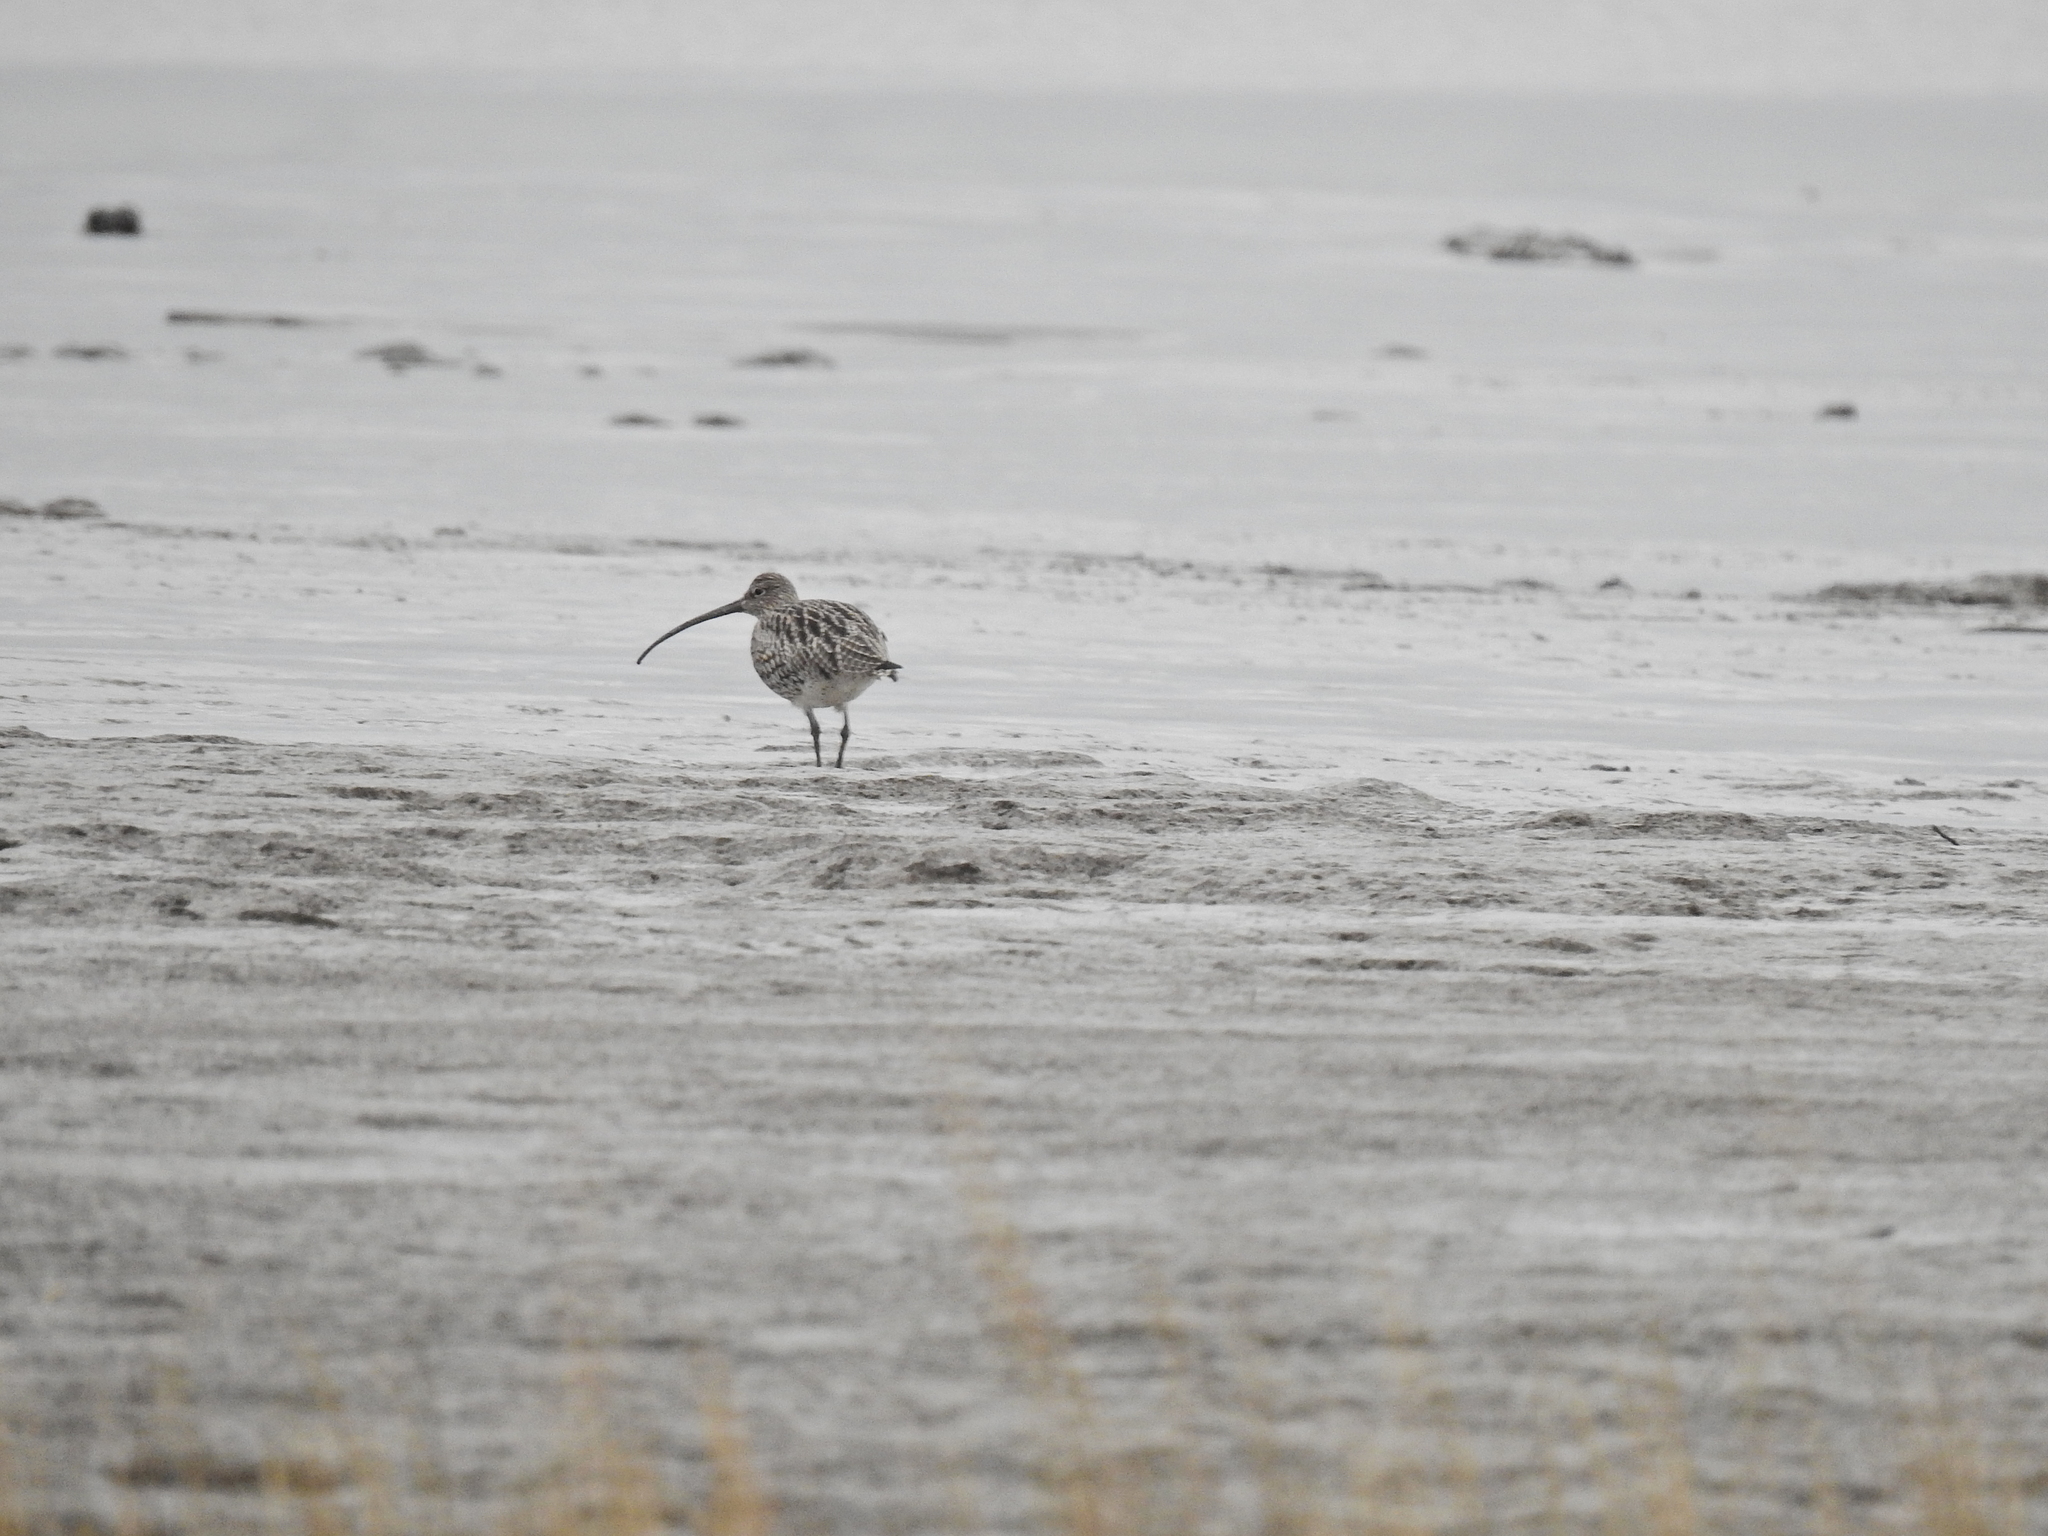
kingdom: Animalia
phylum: Chordata
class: Aves
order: Charadriiformes
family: Scolopacidae
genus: Numenius
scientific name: Numenius arquata
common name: Eurasian curlew
